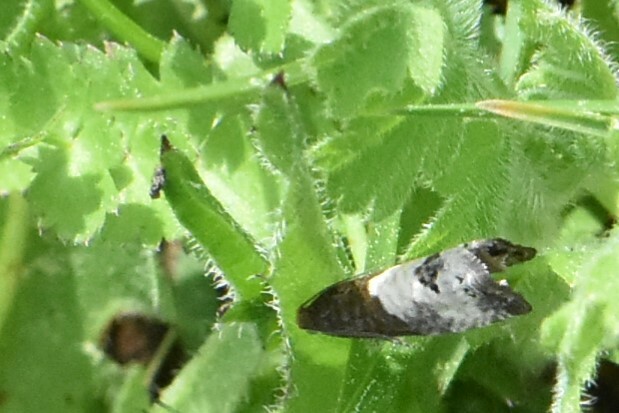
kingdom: Animalia
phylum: Arthropoda
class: Insecta
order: Lepidoptera
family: Tortricidae
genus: Notocelia
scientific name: Notocelia cynosbatella
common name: Yellow-faced bell moth
